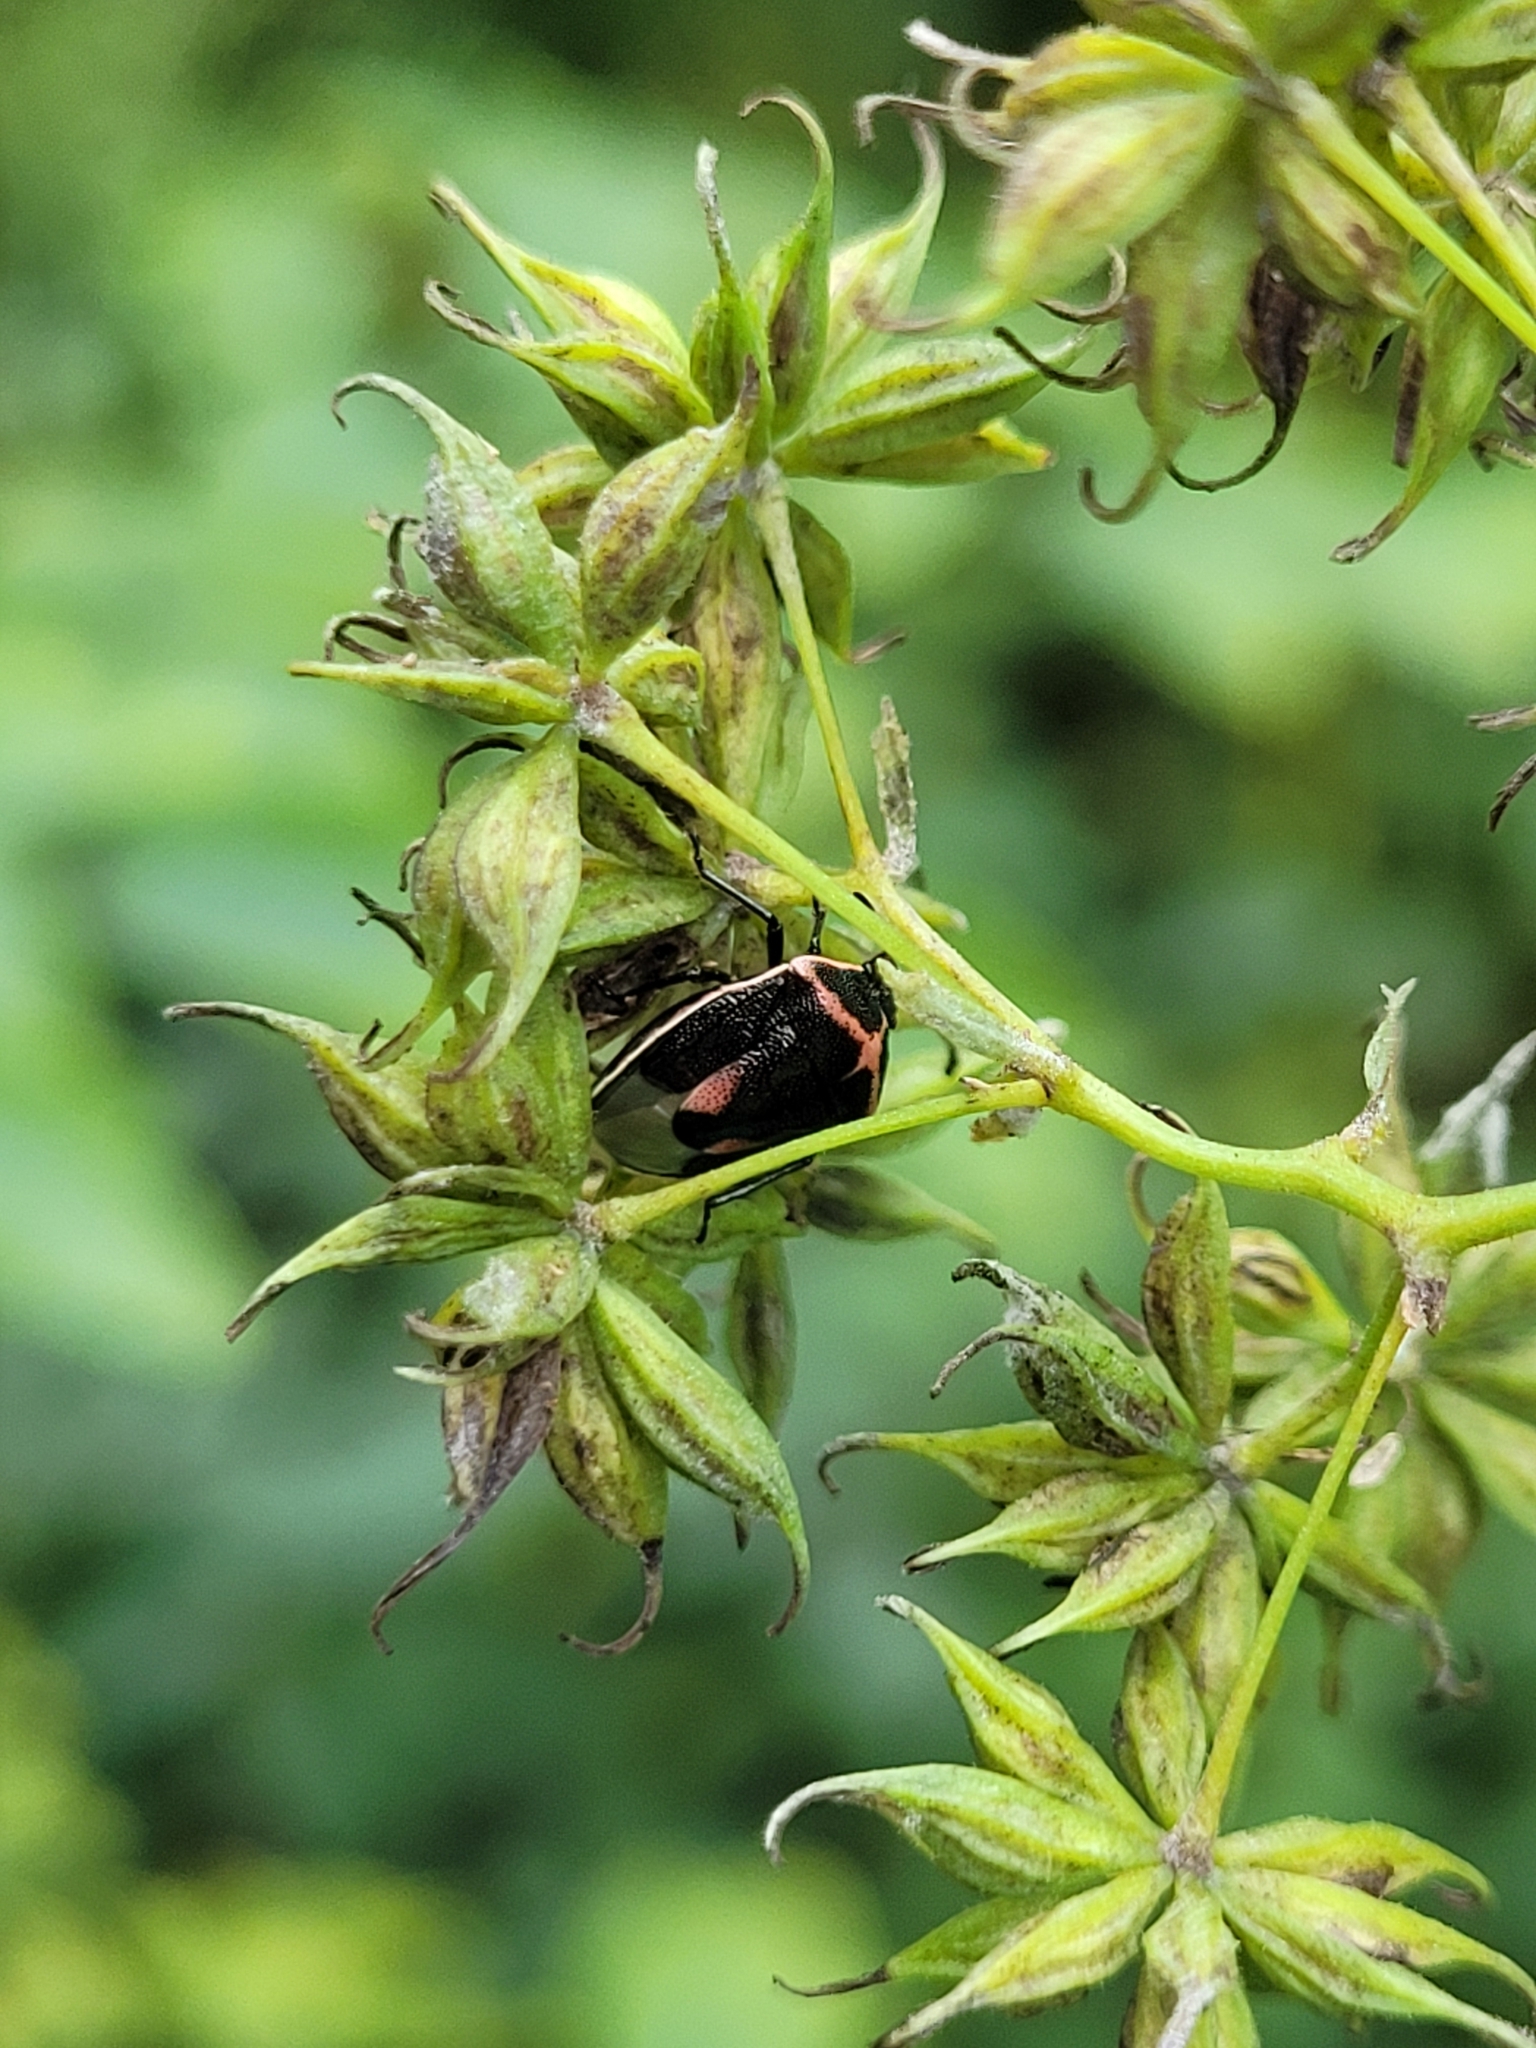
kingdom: Animalia
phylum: Arthropoda
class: Insecta
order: Hemiptera
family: Pentatomidae
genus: Cosmopepla
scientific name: Cosmopepla lintneriana
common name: Twice-stabbed stink bug
